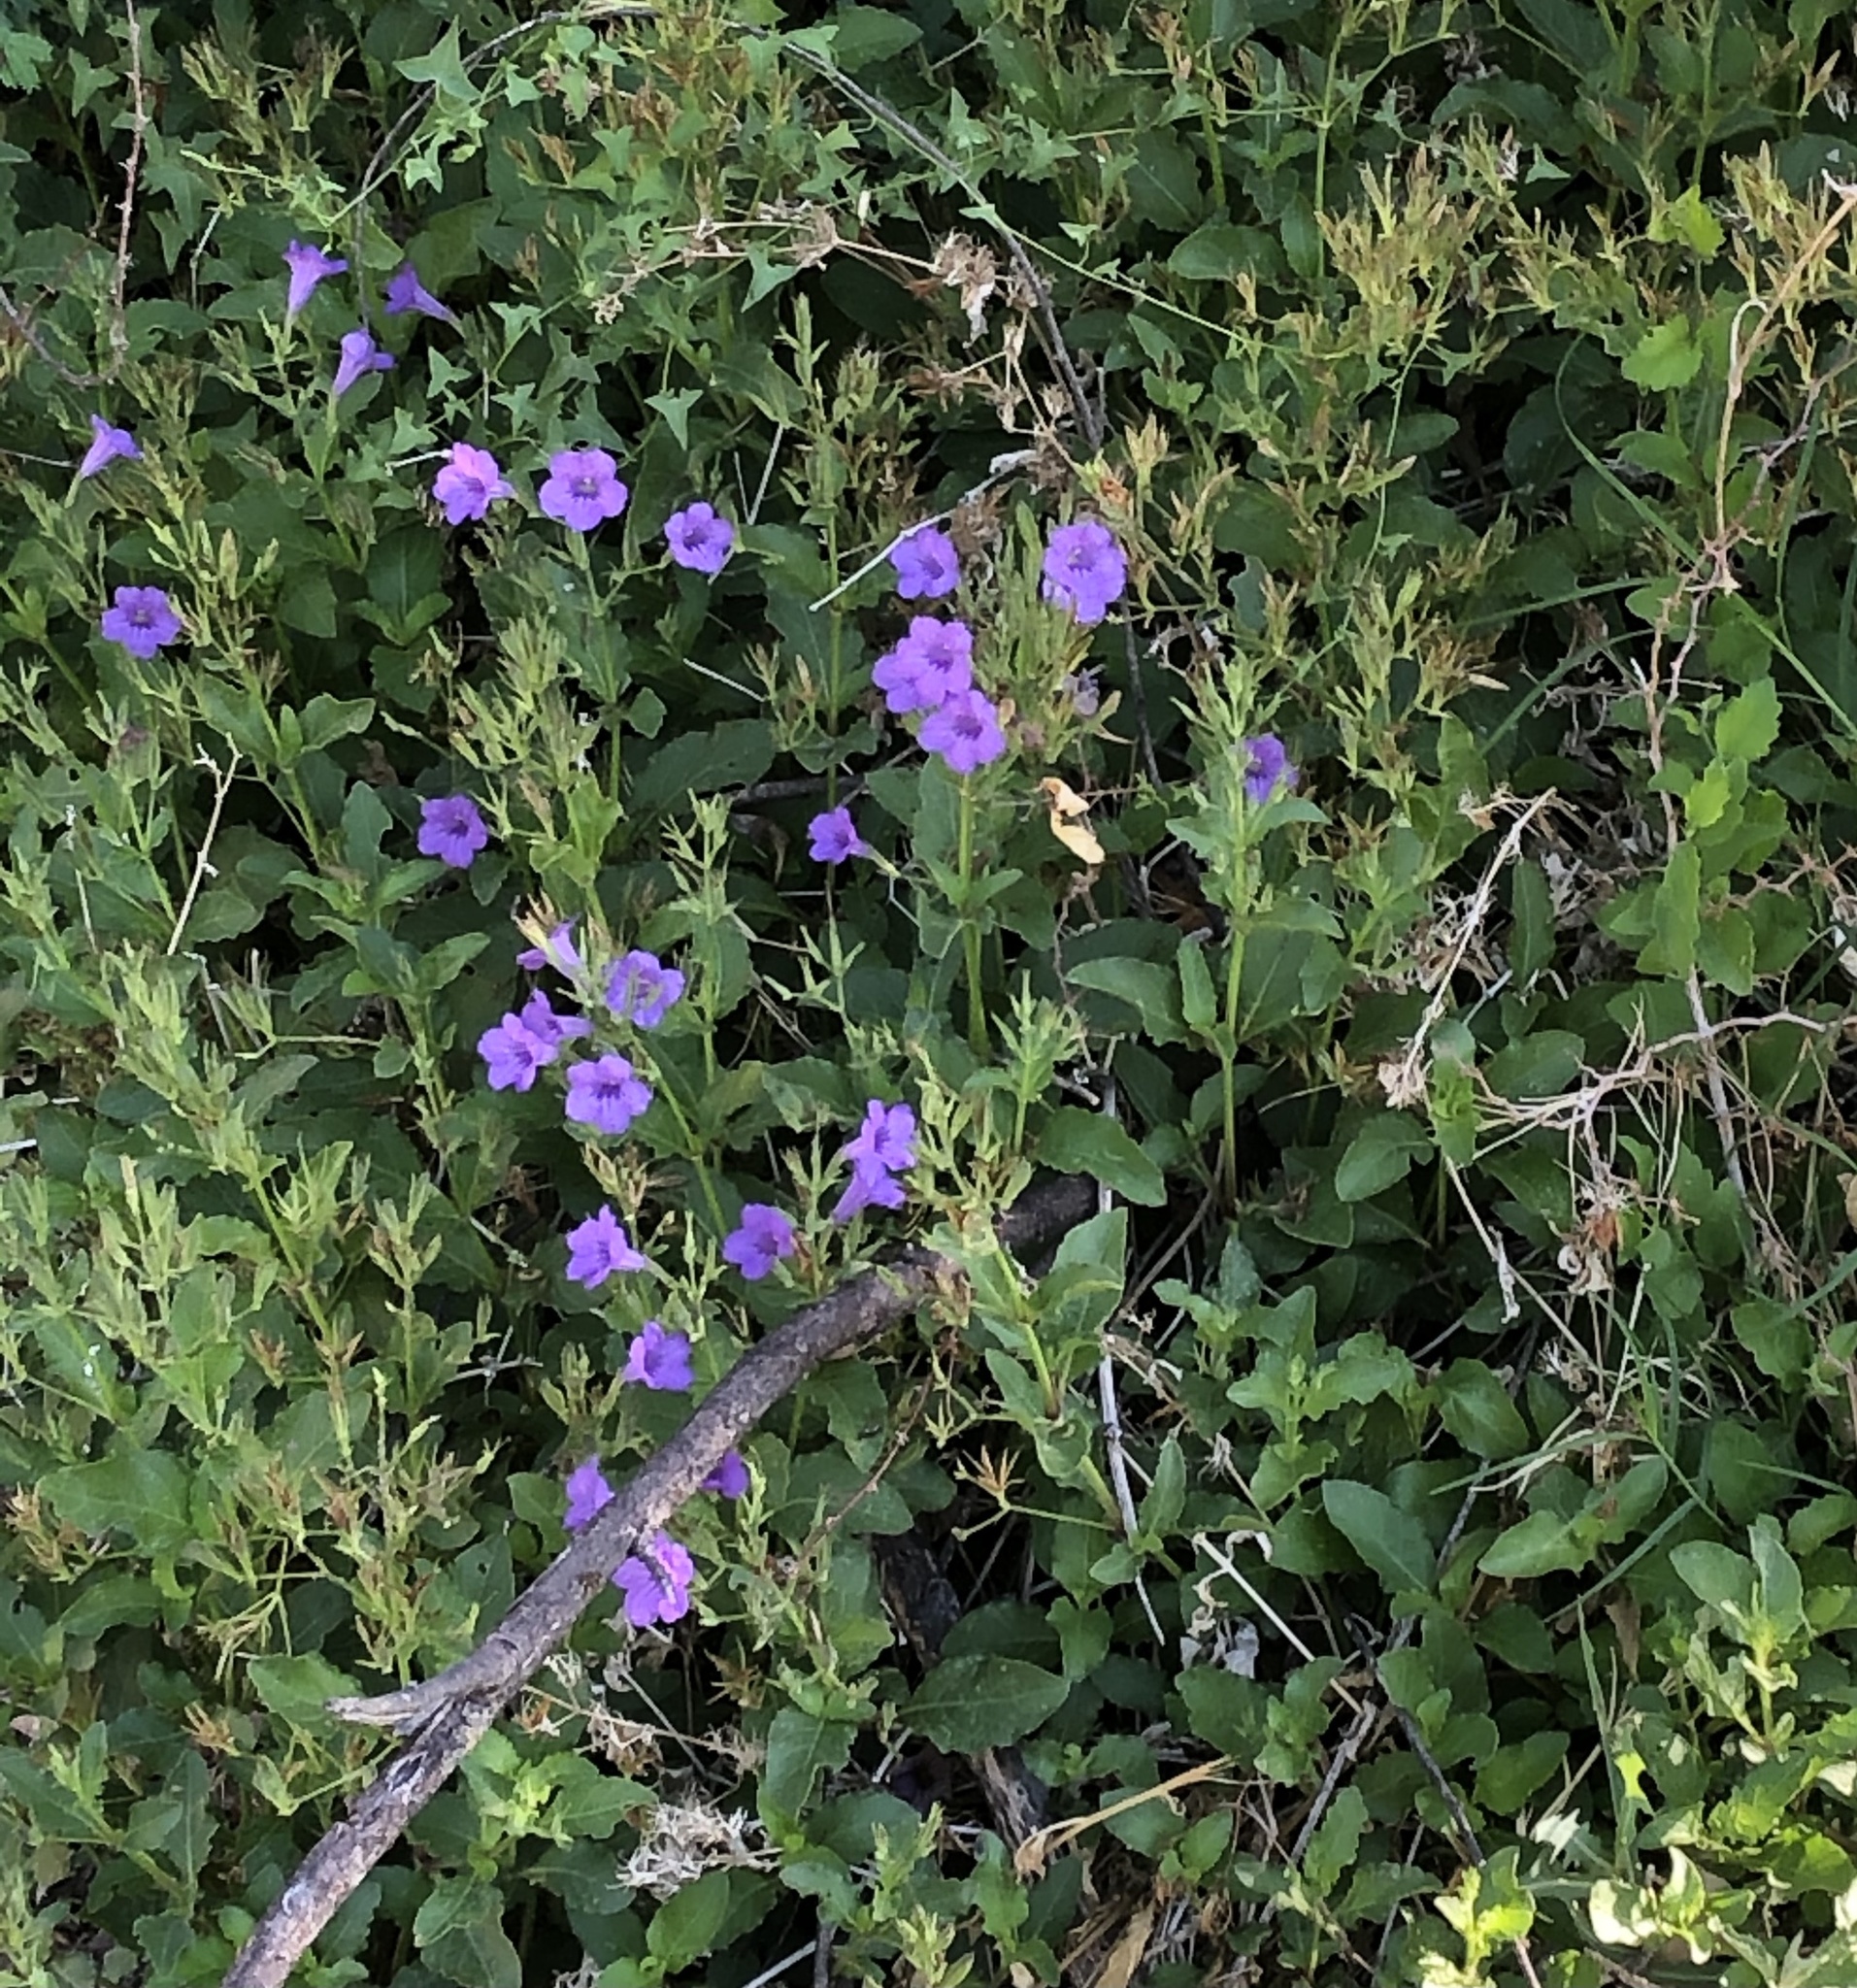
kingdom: Plantae
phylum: Tracheophyta
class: Magnoliopsida
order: Lamiales
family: Acanthaceae
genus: Ruellia
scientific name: Ruellia ciliatiflora
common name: Hairyflower wild petunia
